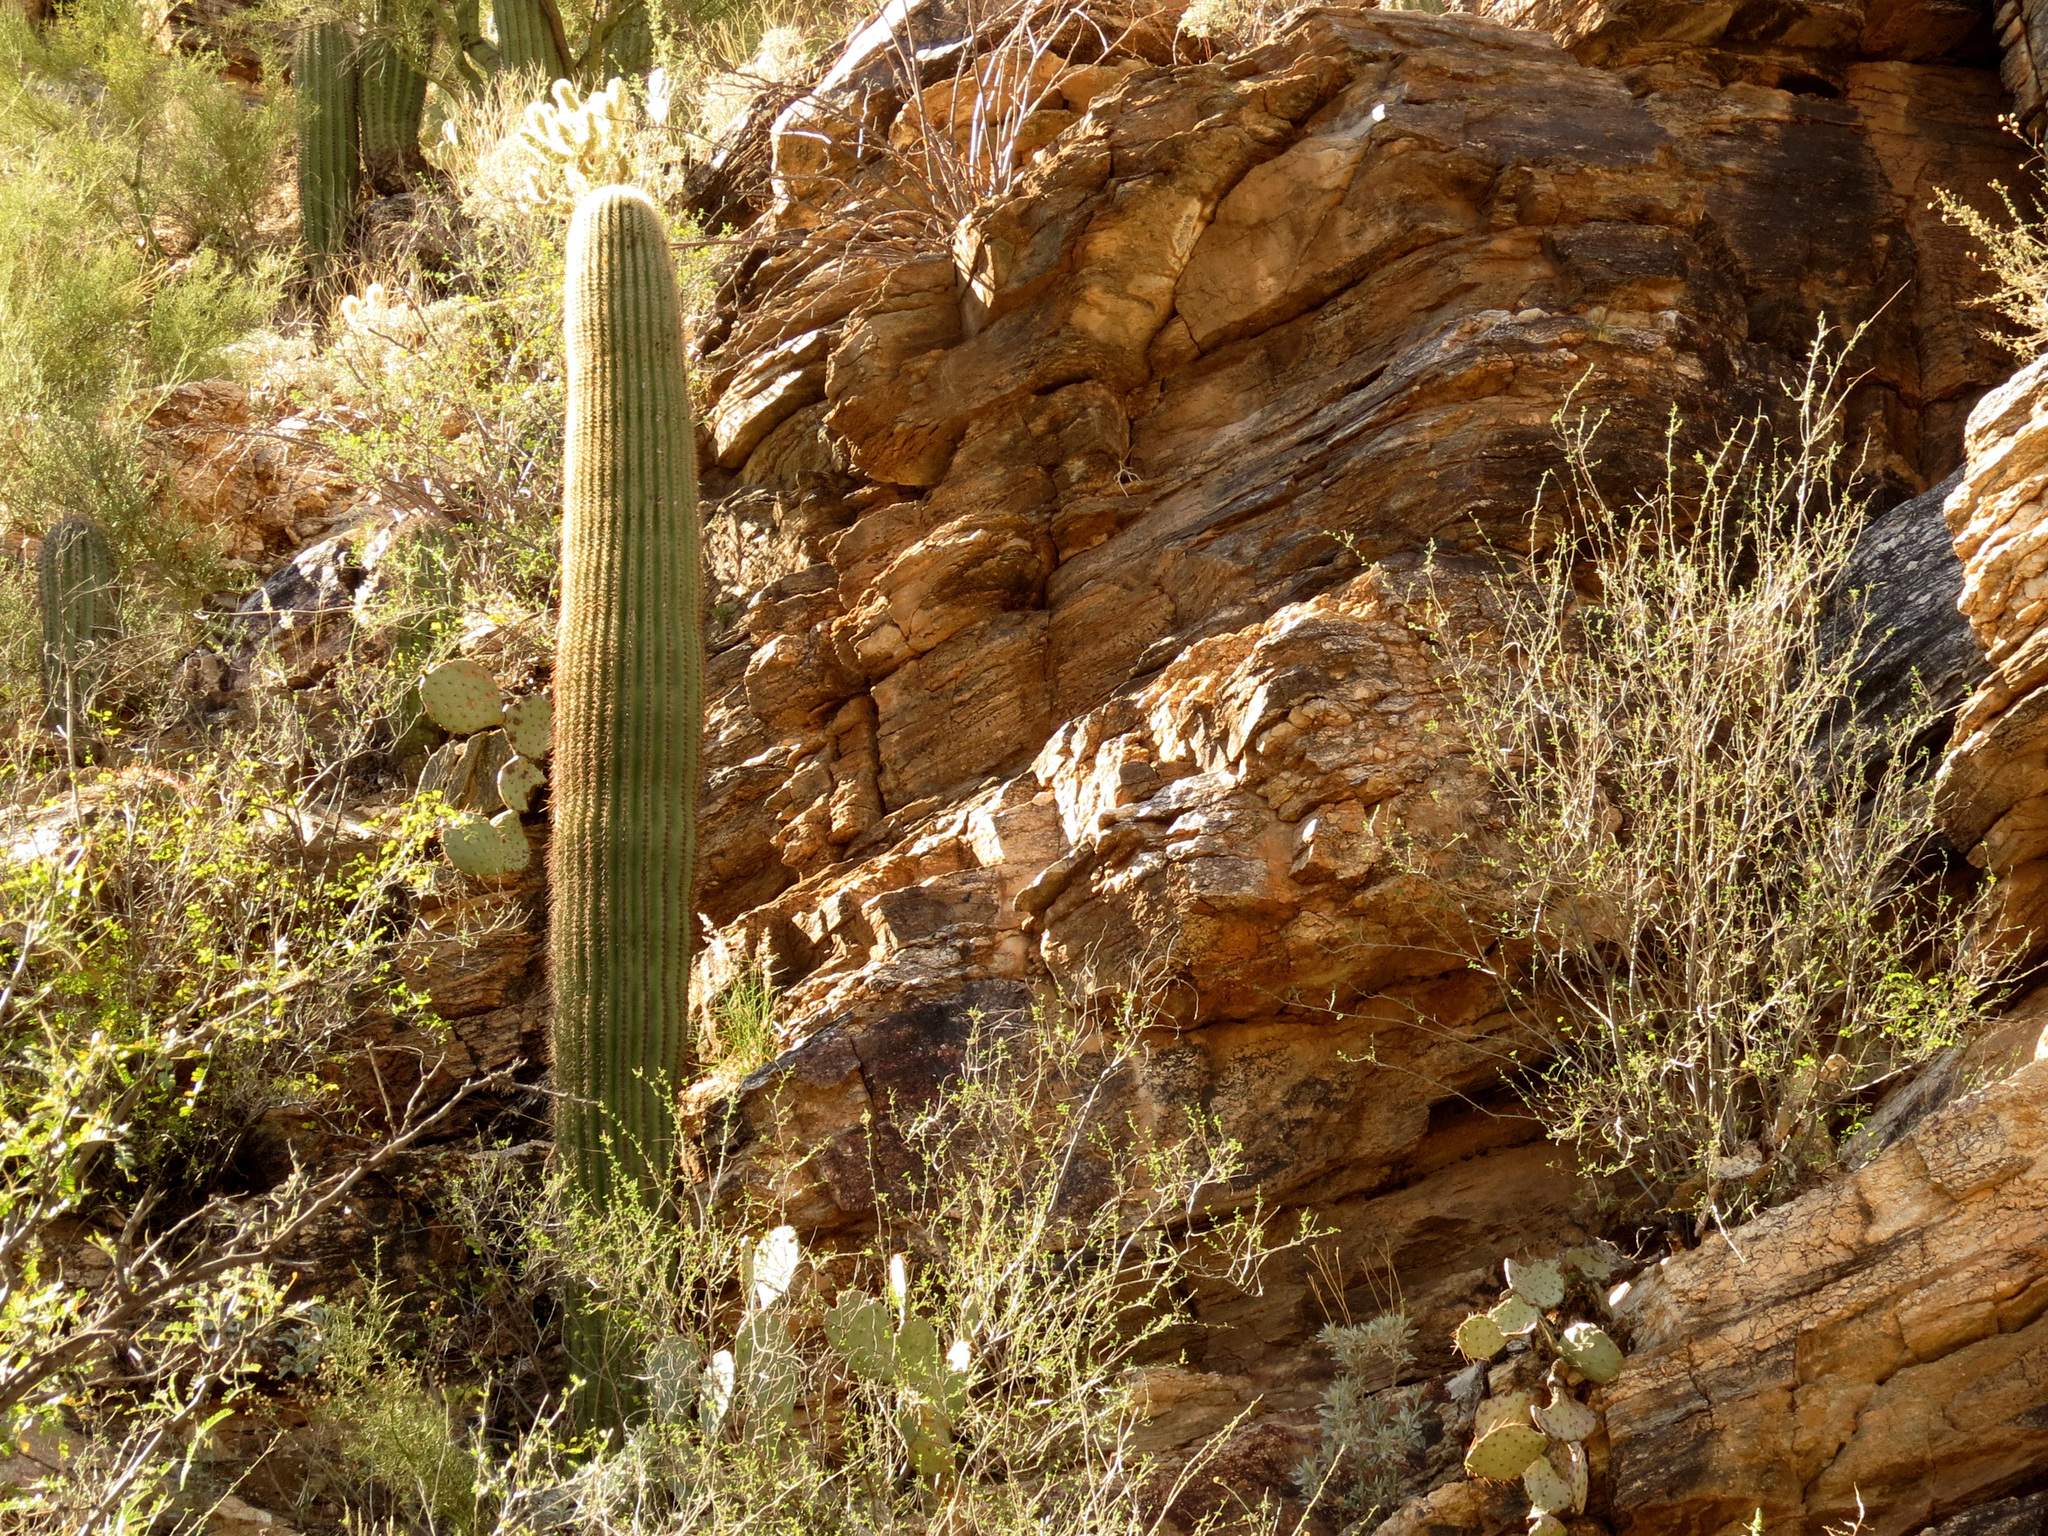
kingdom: Plantae
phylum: Tracheophyta
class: Magnoliopsida
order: Caryophyllales
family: Cactaceae
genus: Carnegiea
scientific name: Carnegiea gigantea
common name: Saguaro
